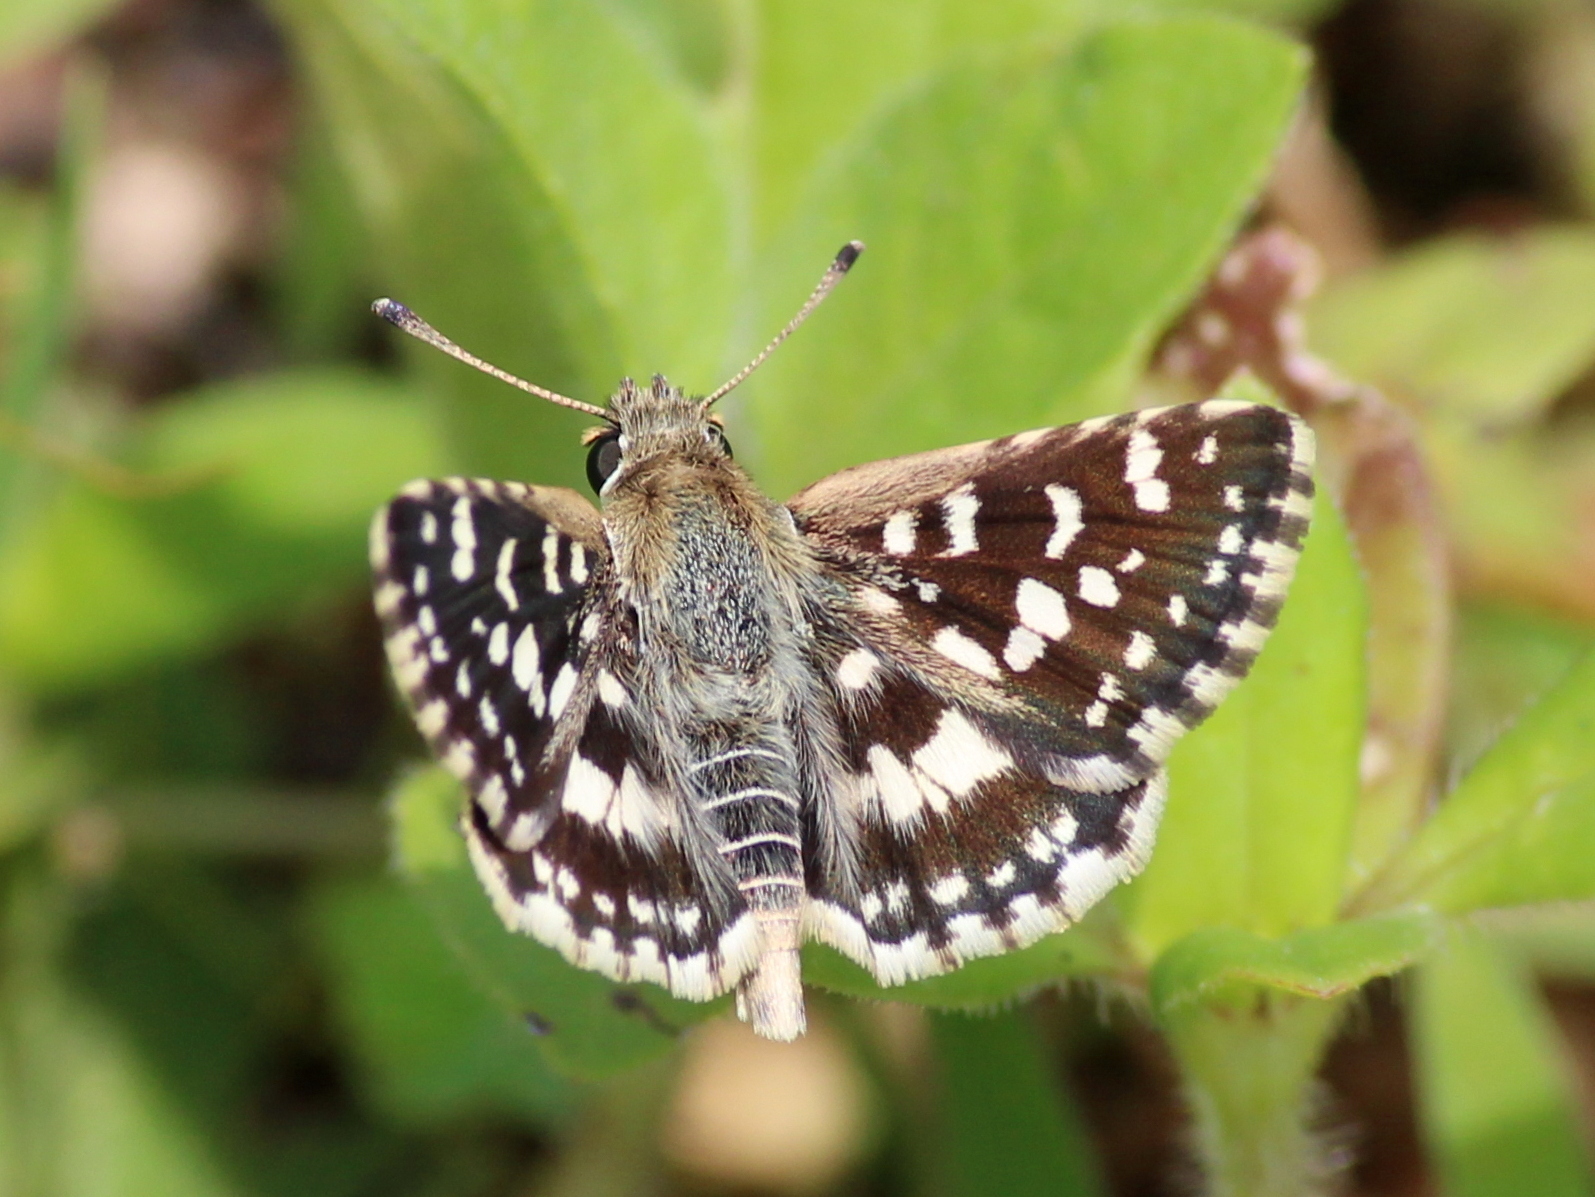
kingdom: Animalia
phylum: Arthropoda
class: Insecta
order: Lepidoptera
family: Hesperiidae
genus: Spialia
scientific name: Spialia galba
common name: Indian skipper
